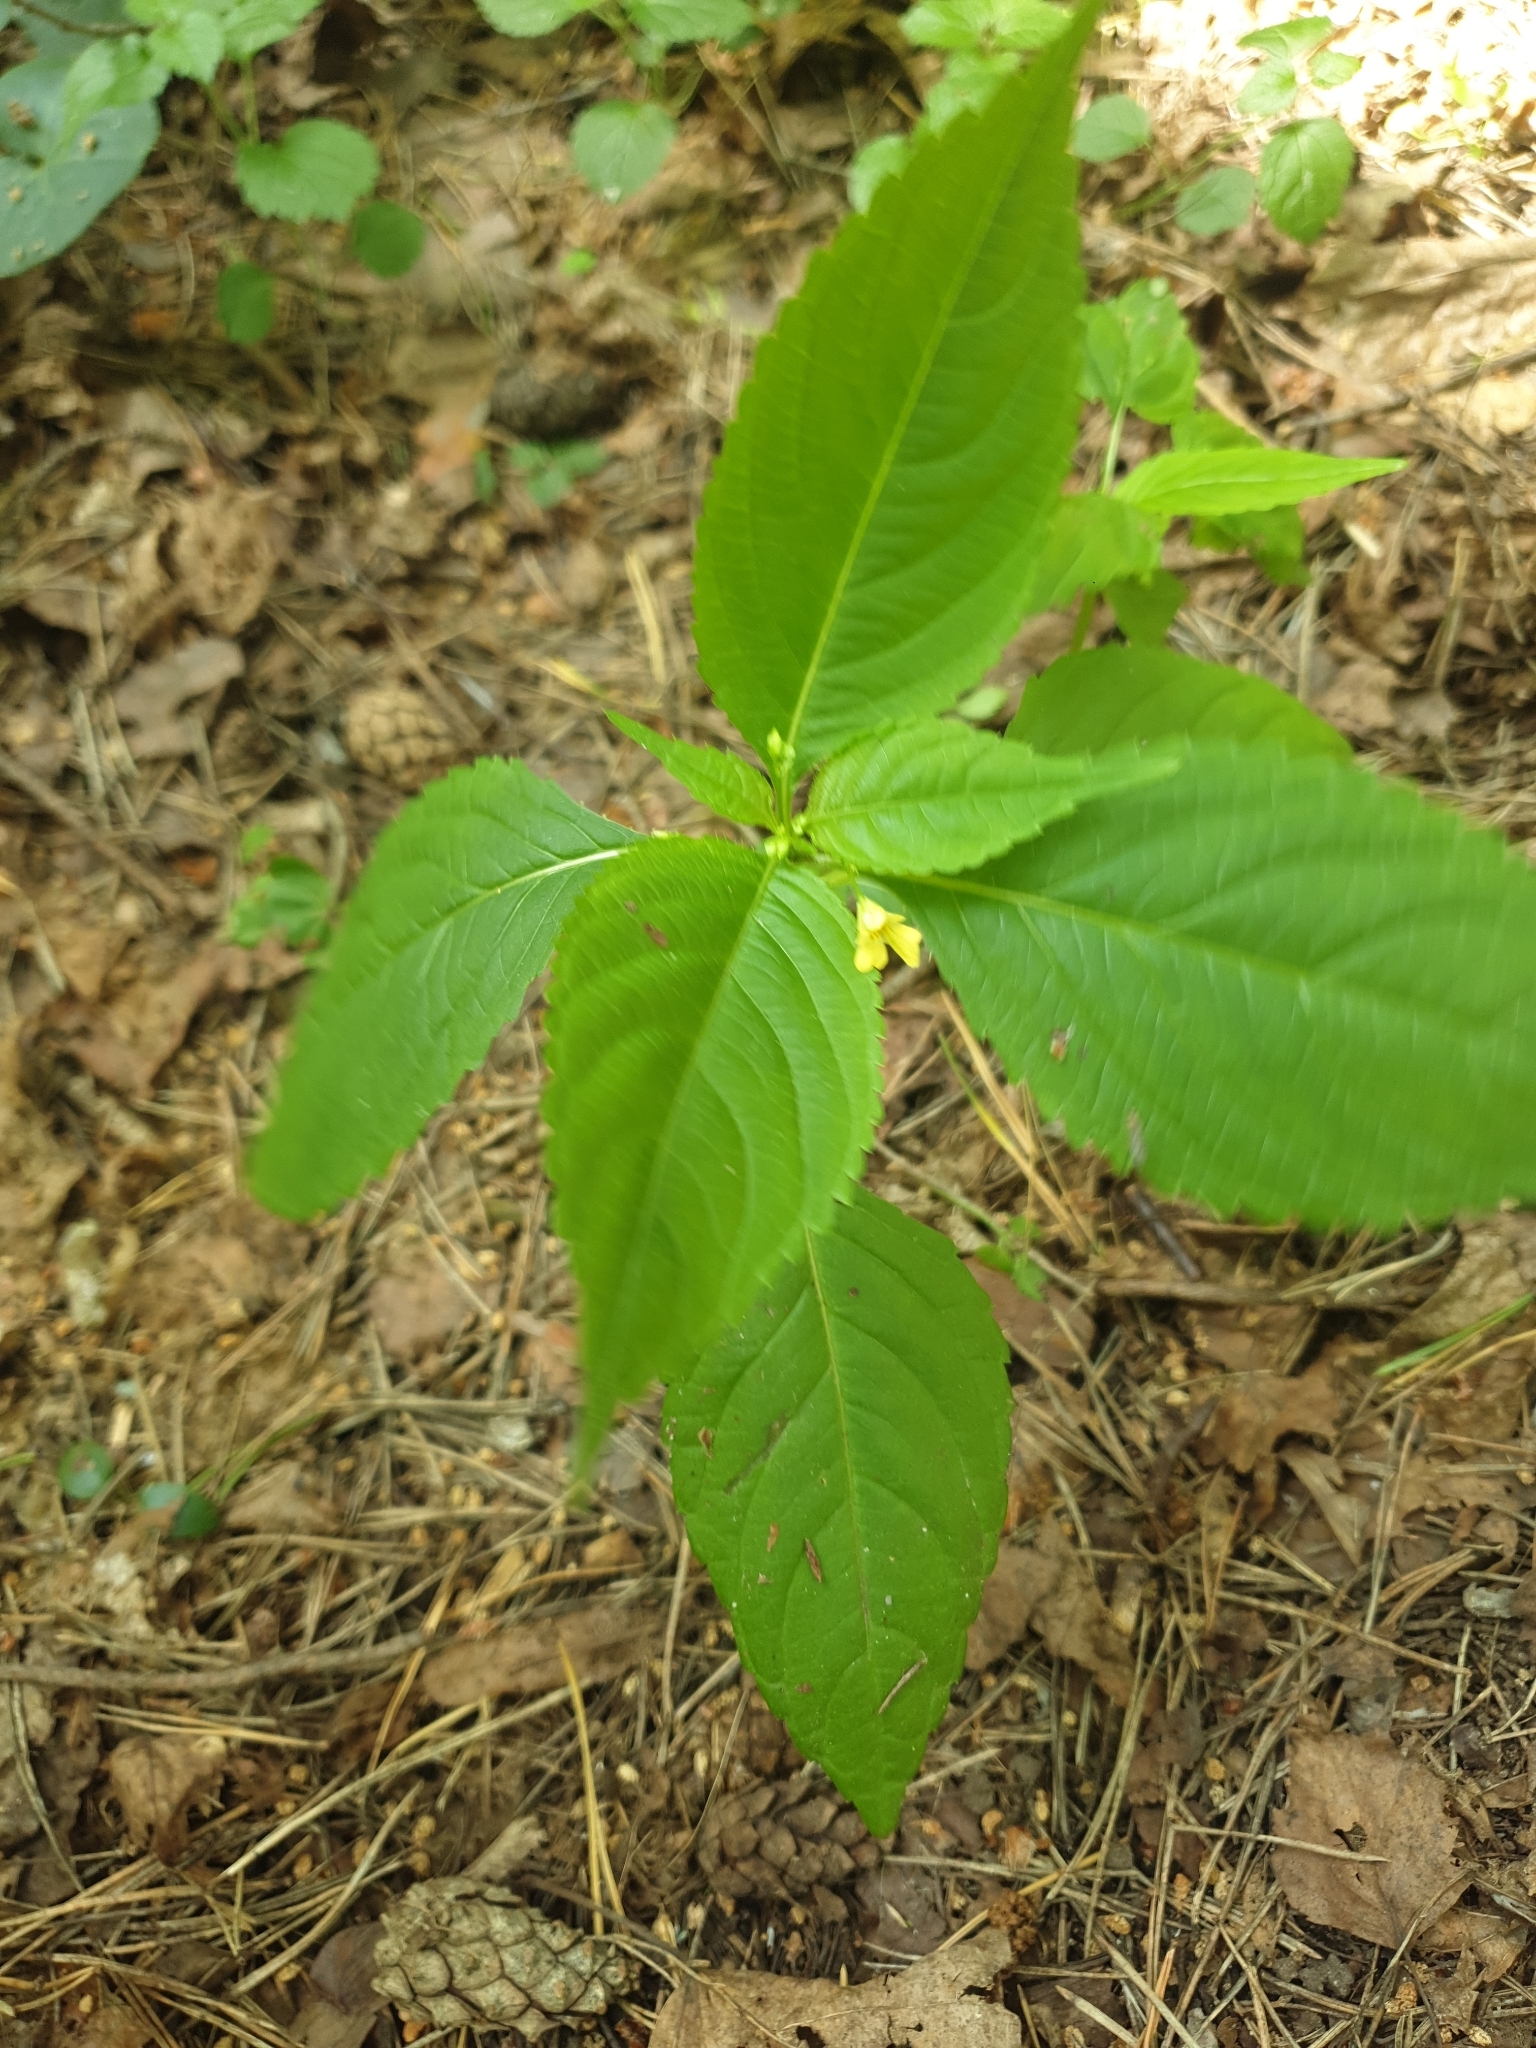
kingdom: Plantae
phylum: Tracheophyta
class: Magnoliopsida
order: Ericales
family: Balsaminaceae
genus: Impatiens
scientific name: Impatiens parviflora
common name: Small balsam
